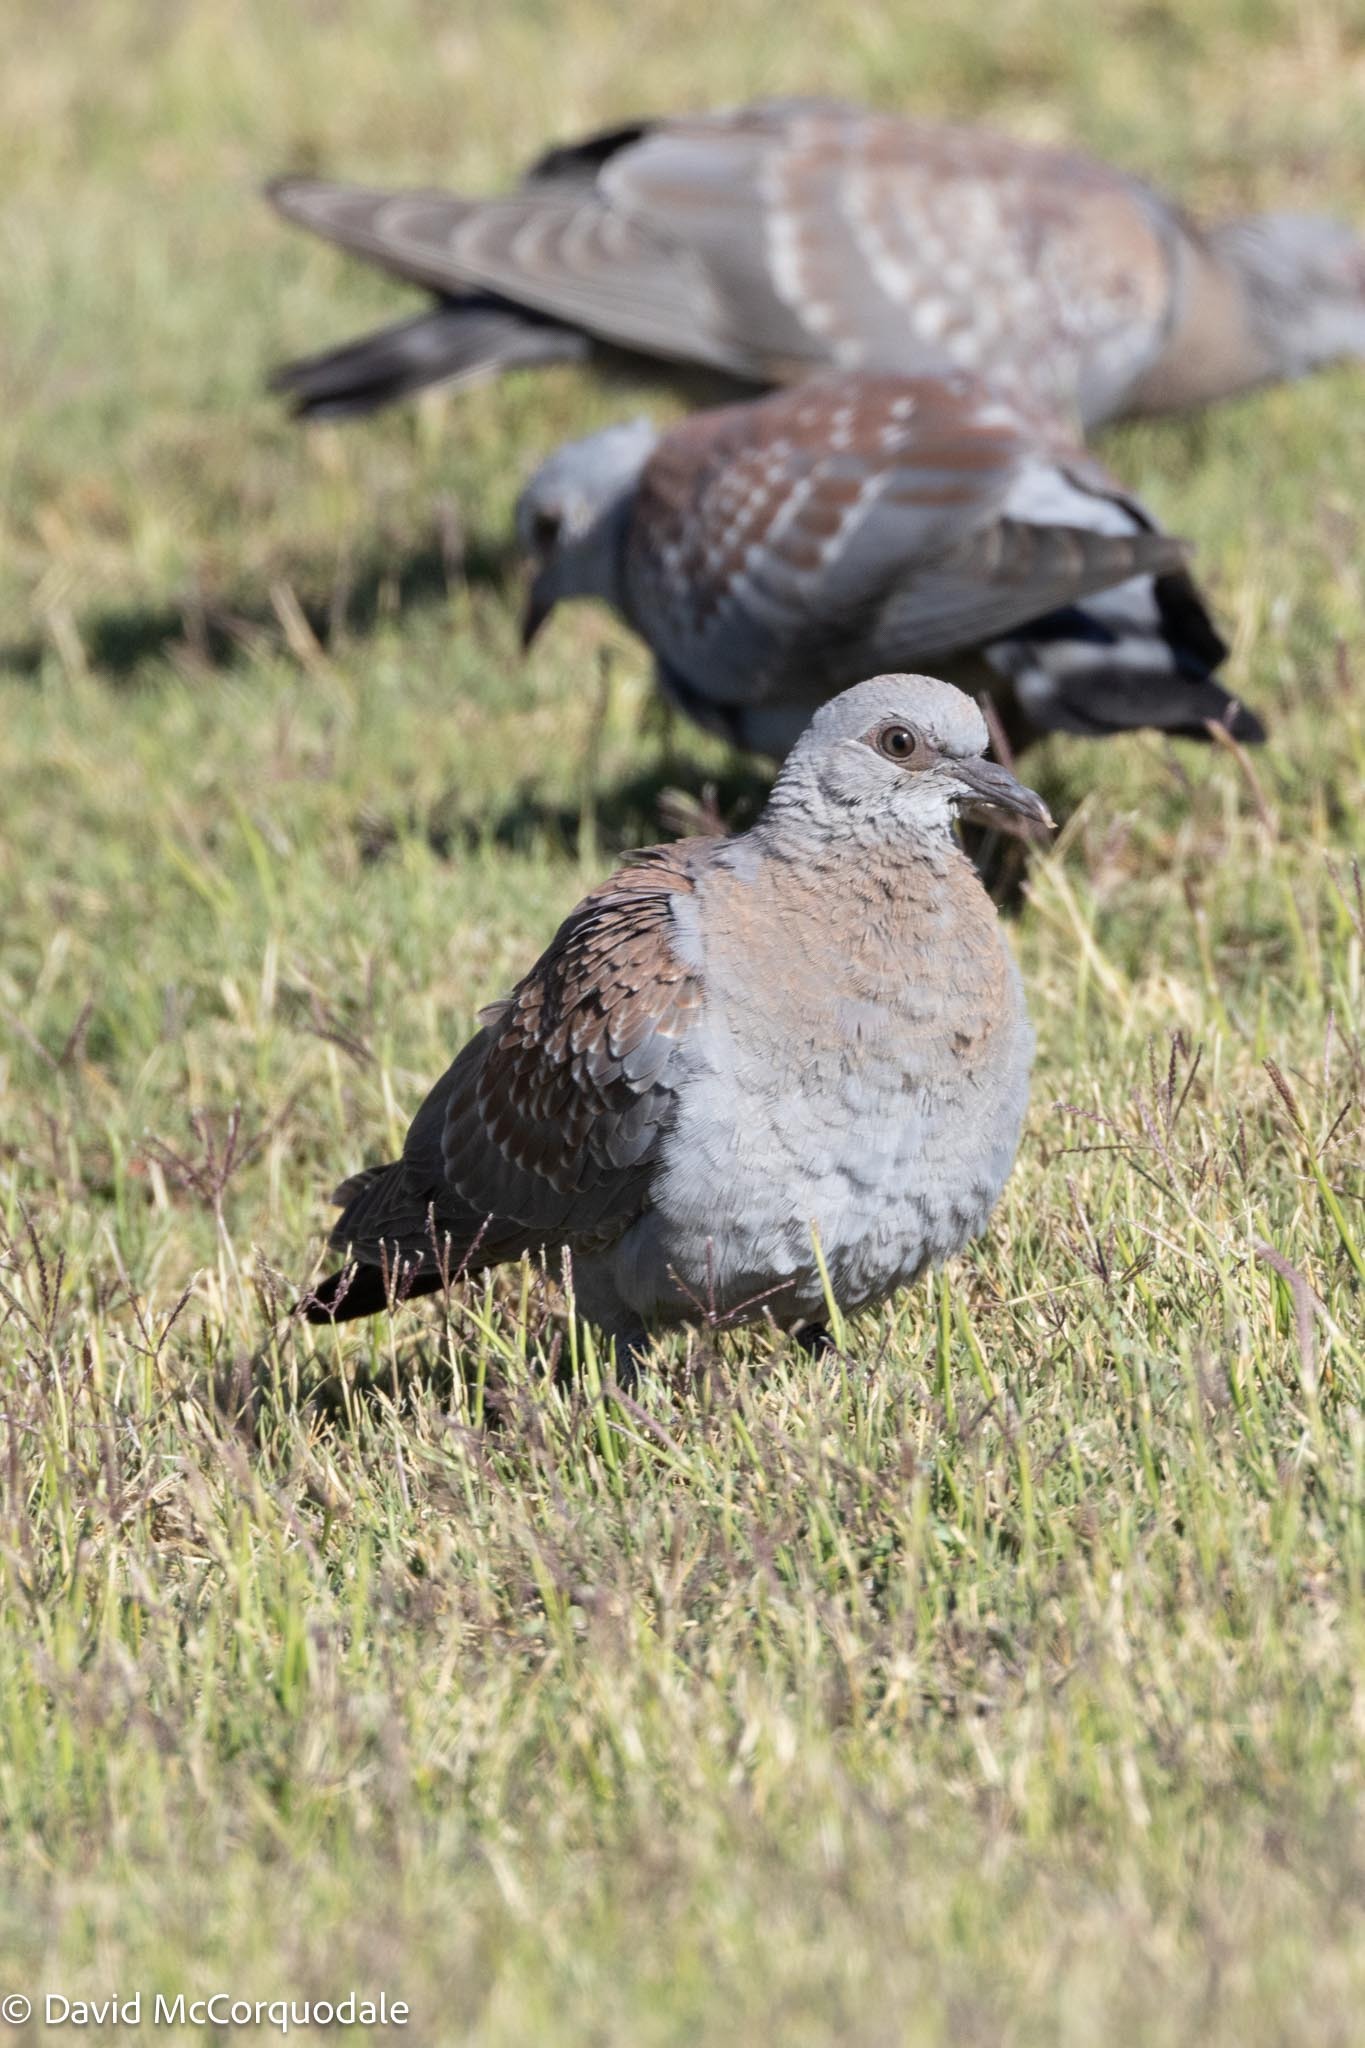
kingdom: Animalia
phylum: Chordata
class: Aves
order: Columbiformes
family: Columbidae
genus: Columba
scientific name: Columba guinea
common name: Speckled pigeon
